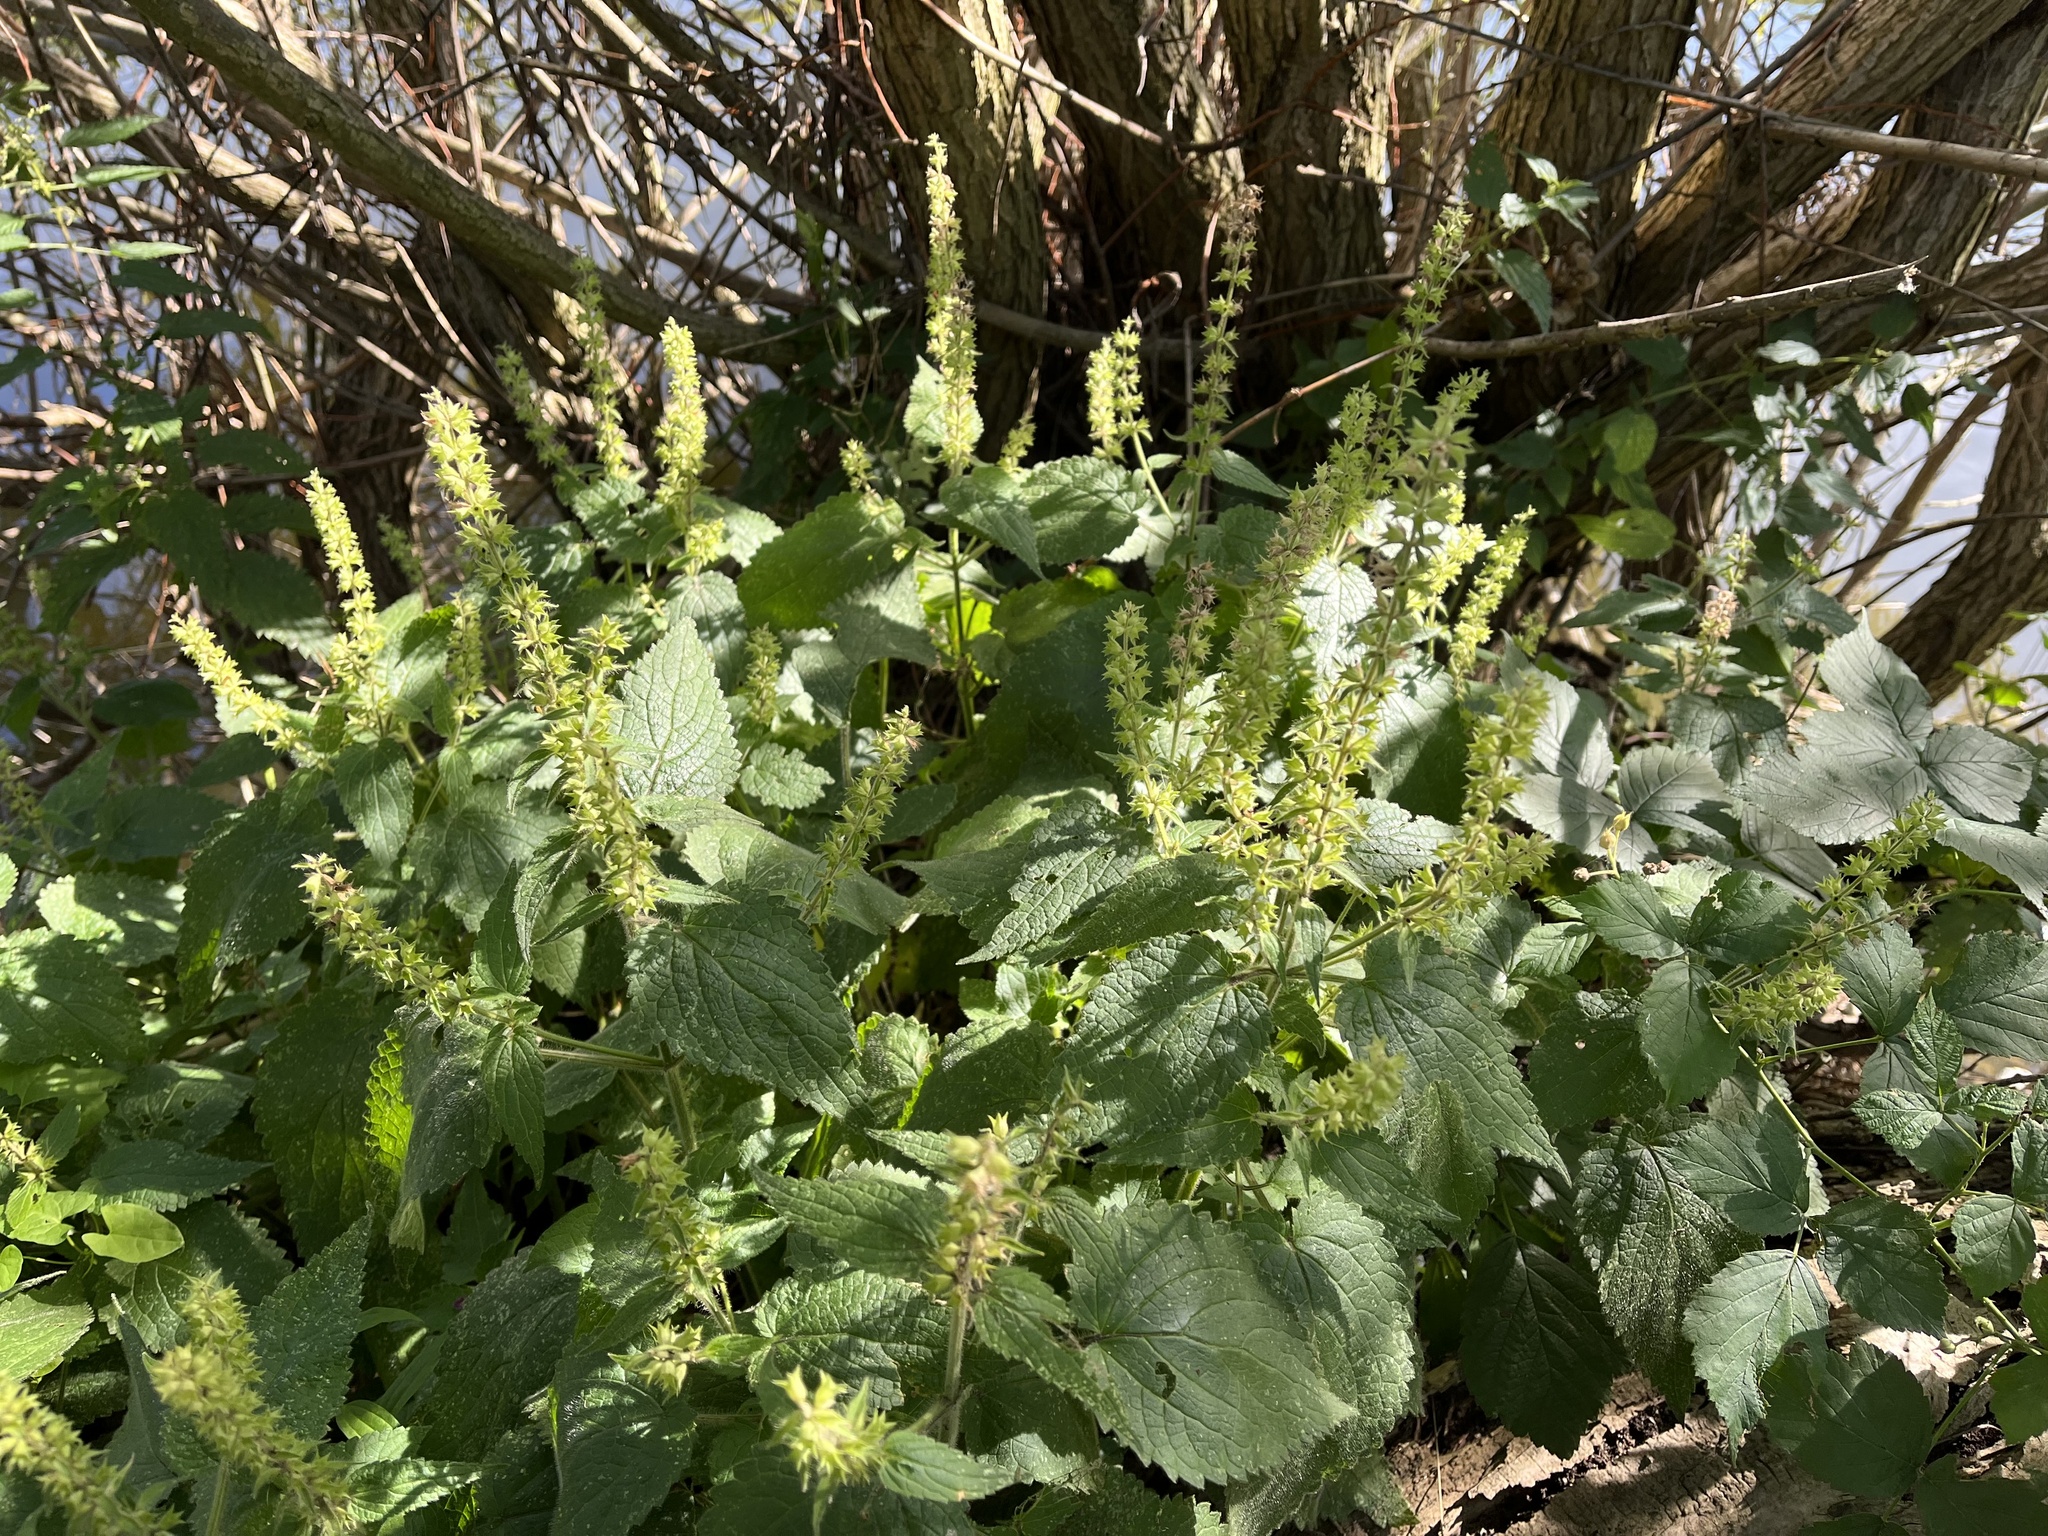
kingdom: Plantae
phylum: Tracheophyta
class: Magnoliopsida
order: Lamiales
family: Lamiaceae
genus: Stachys
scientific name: Stachys sylvatica
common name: Hedge woundwort
